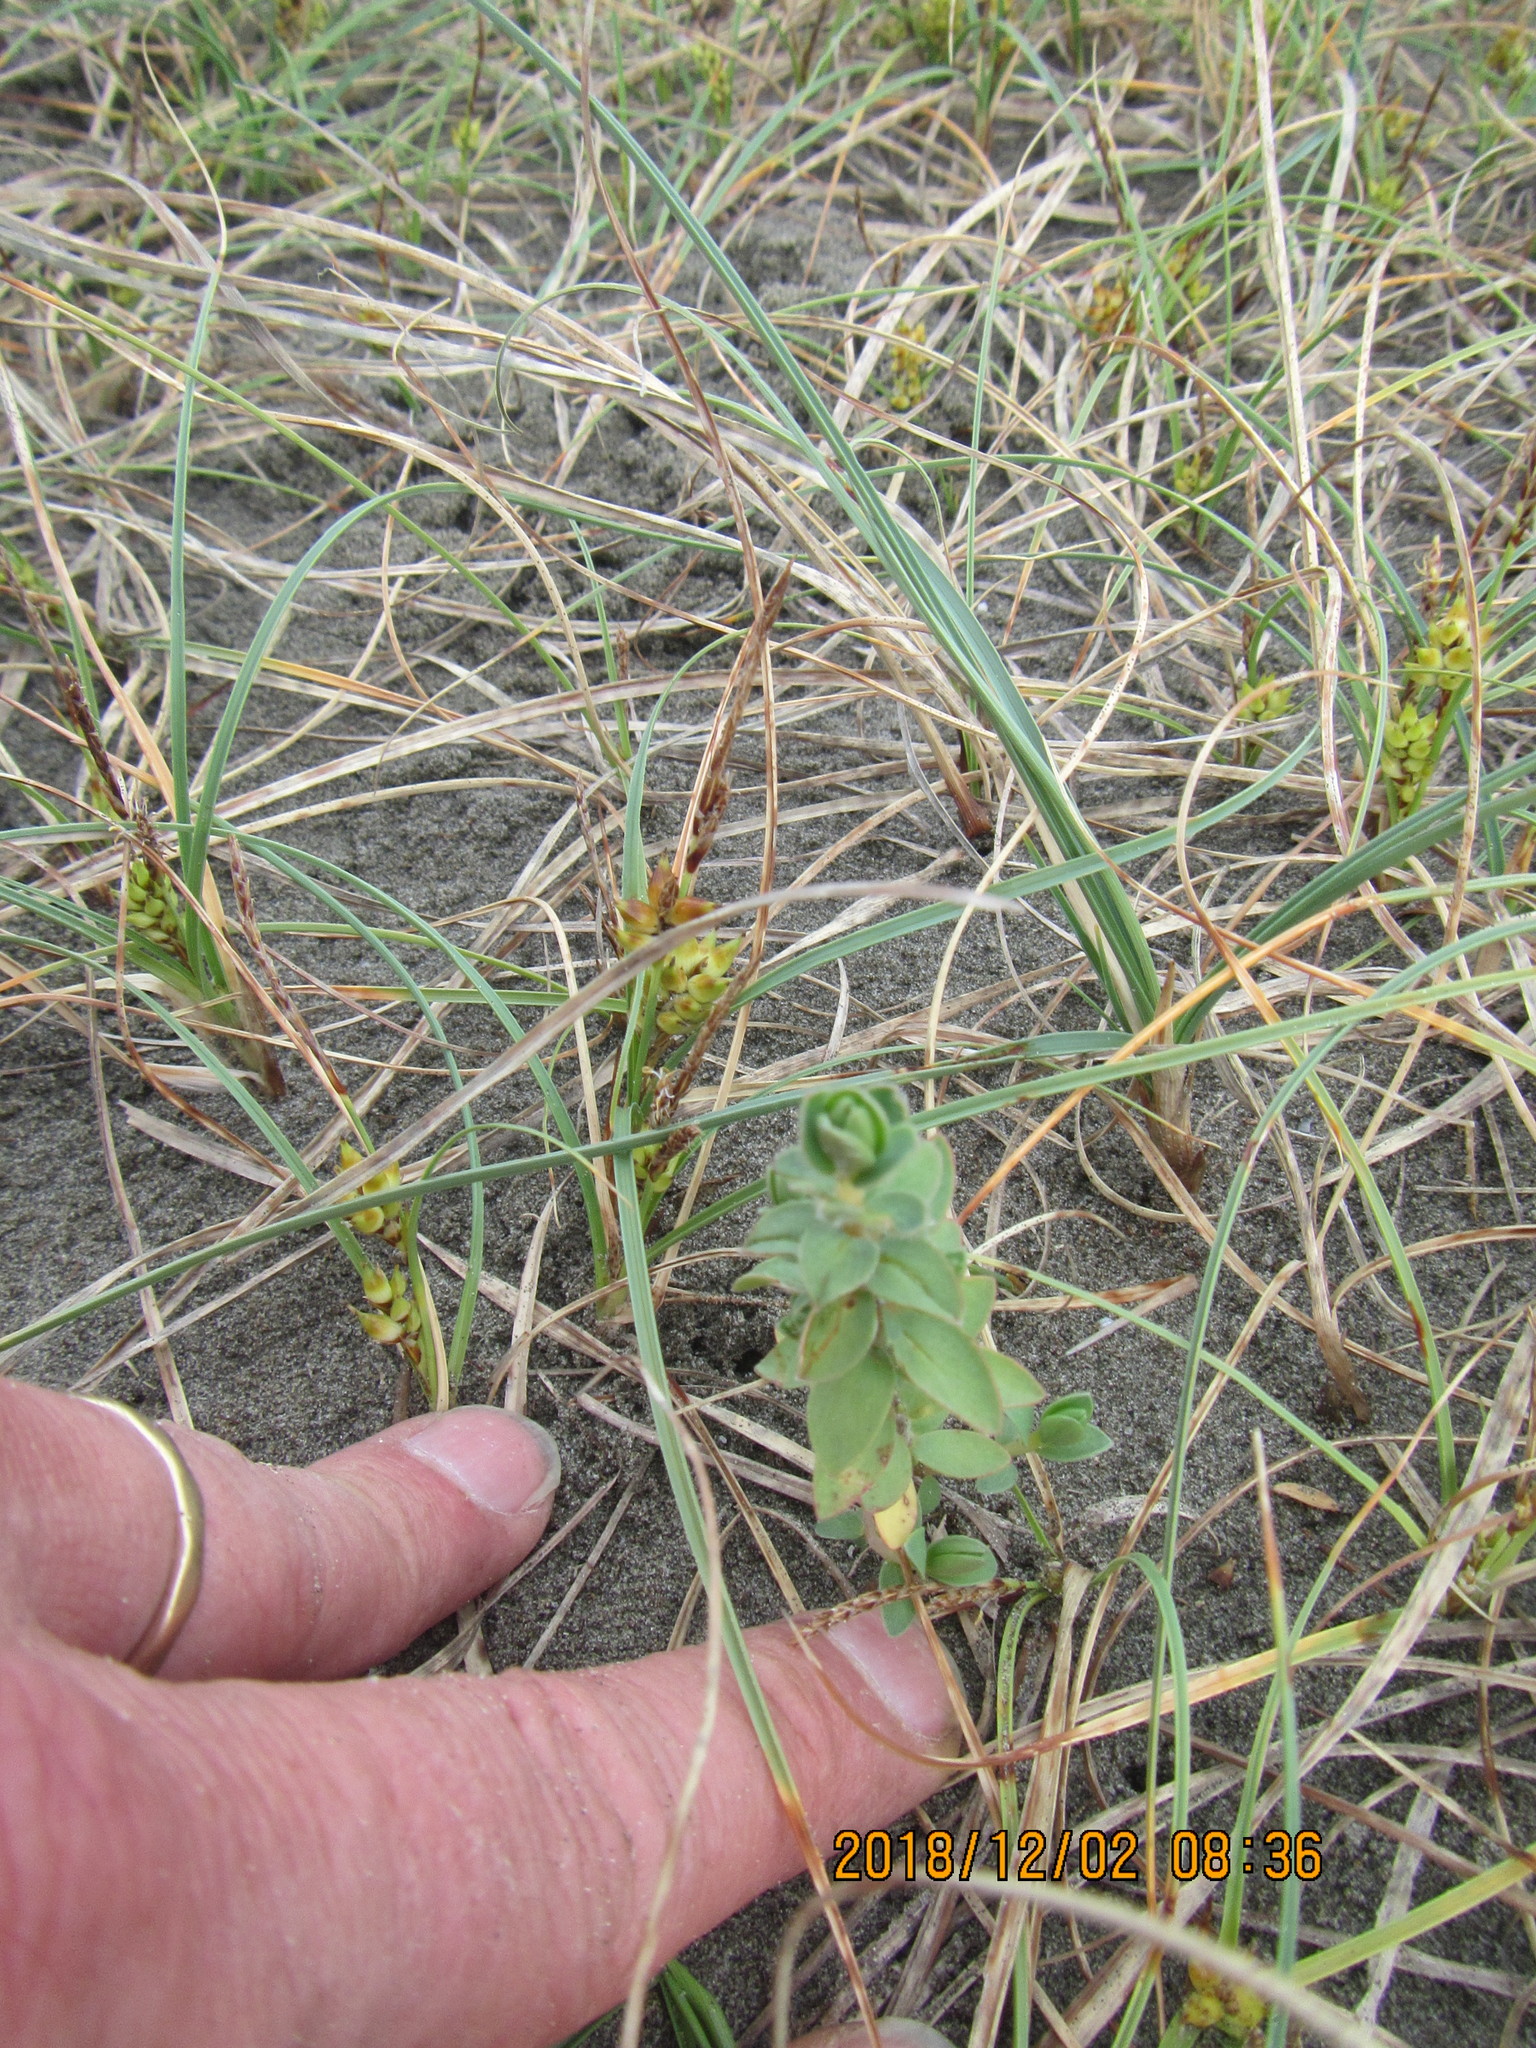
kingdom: Plantae
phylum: Tracheophyta
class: Magnoliopsida
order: Malvales
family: Thymelaeaceae
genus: Pimelea
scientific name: Pimelea villosa
